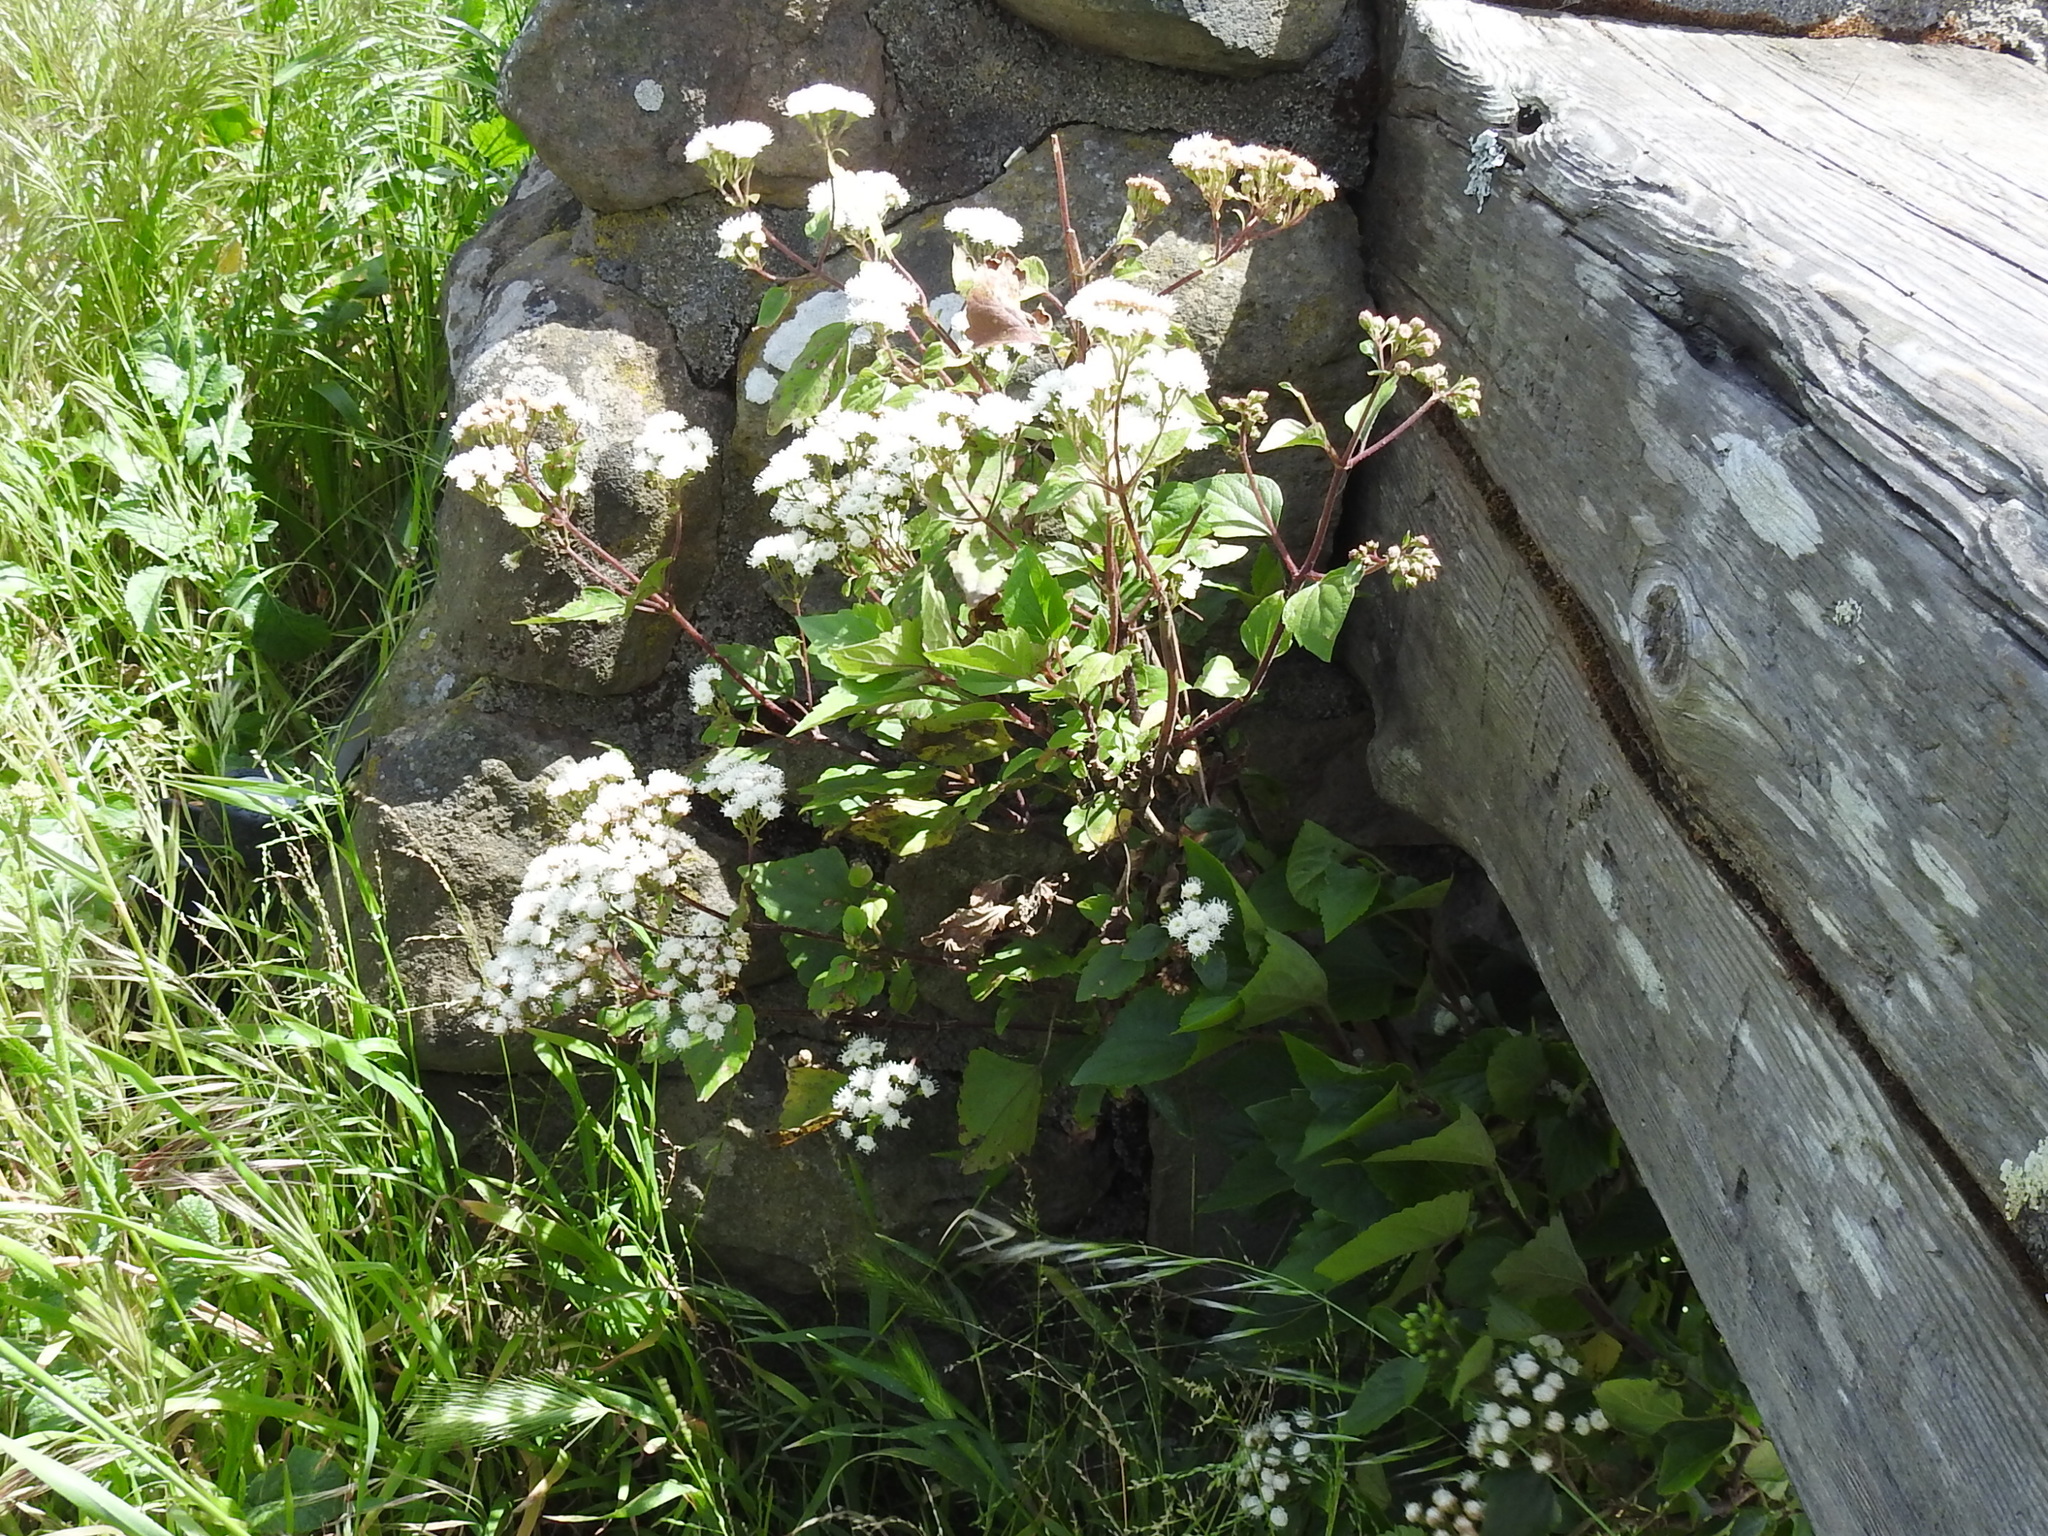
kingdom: Plantae
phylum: Tracheophyta
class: Magnoliopsida
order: Asterales
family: Asteraceae
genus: Ageratina
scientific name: Ageratina adenophora
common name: Sticky snakeroot
